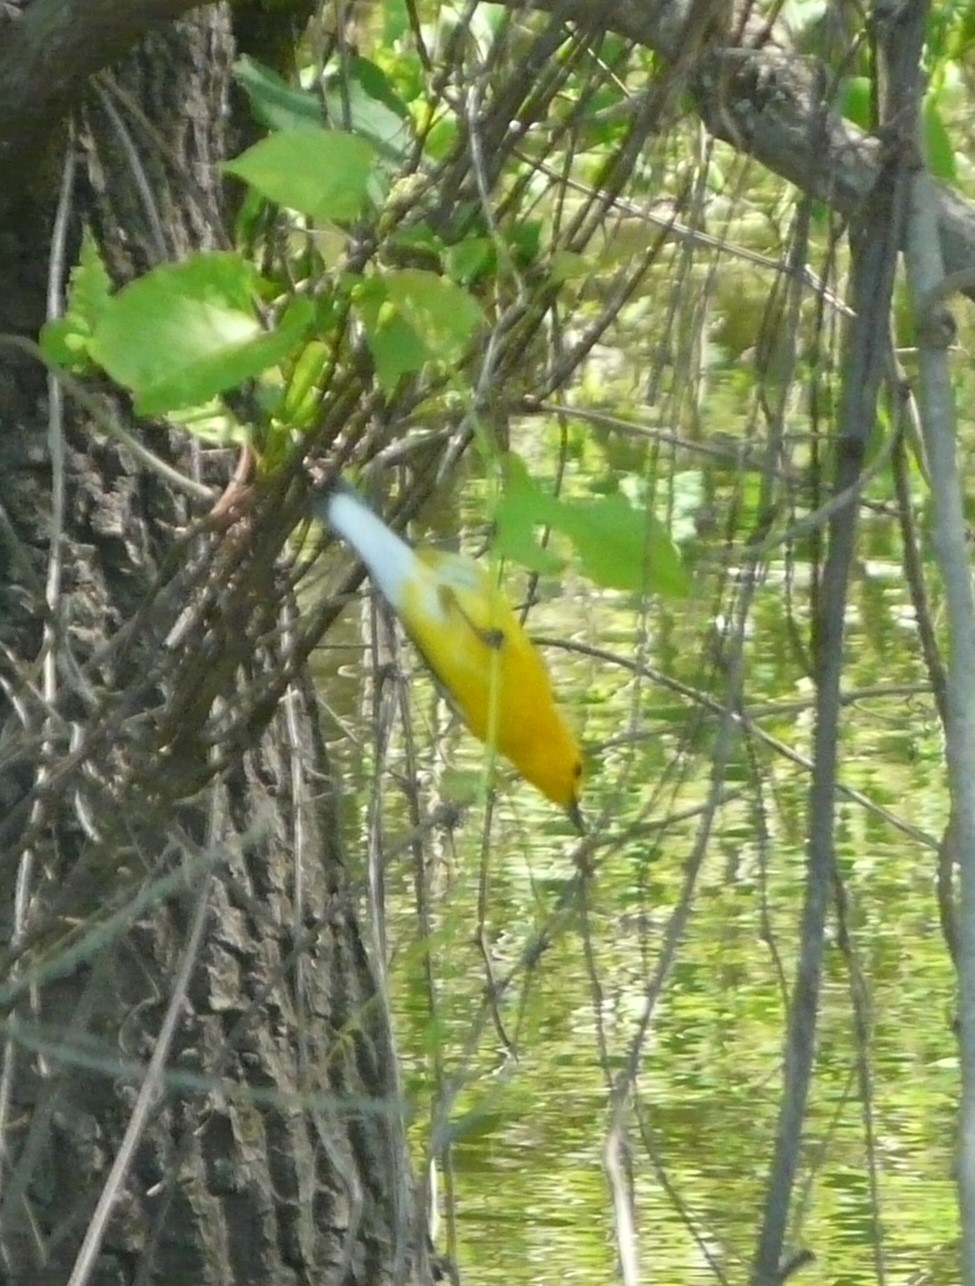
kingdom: Animalia
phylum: Chordata
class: Aves
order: Passeriformes
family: Parulidae
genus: Protonotaria
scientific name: Protonotaria citrea
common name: Prothonotary warbler
